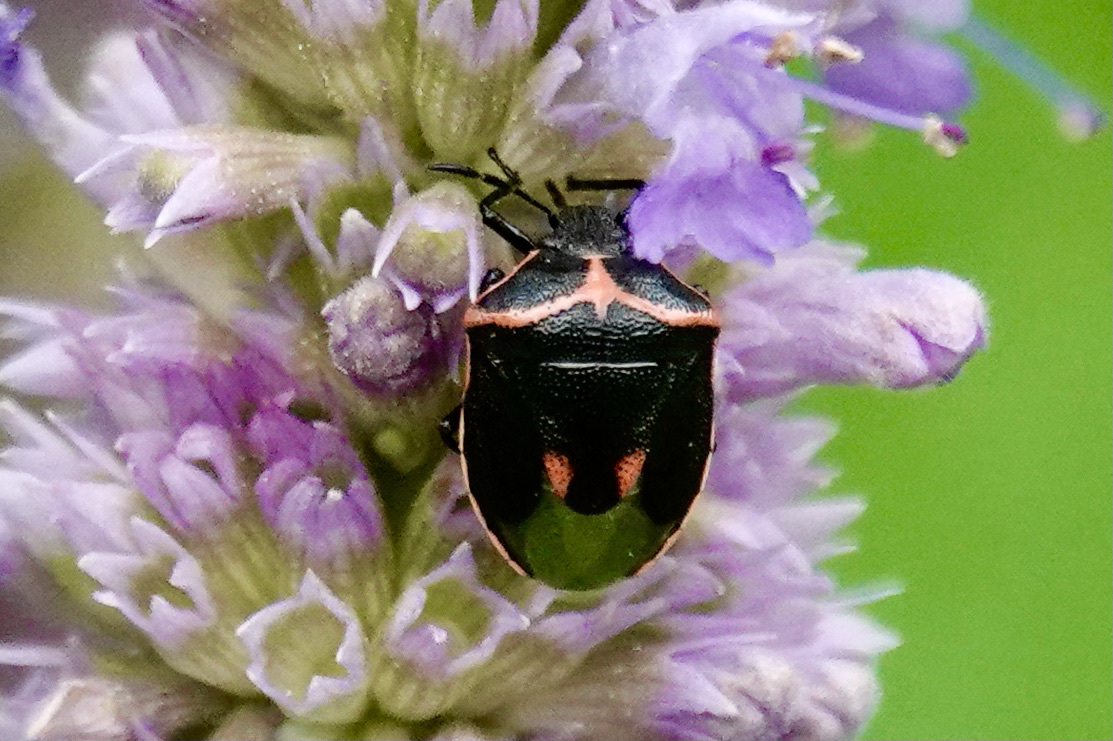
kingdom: Animalia
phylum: Arthropoda
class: Insecta
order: Hemiptera
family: Pentatomidae
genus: Cosmopepla
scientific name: Cosmopepla lintneriana
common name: Twice-stabbed stink bug
